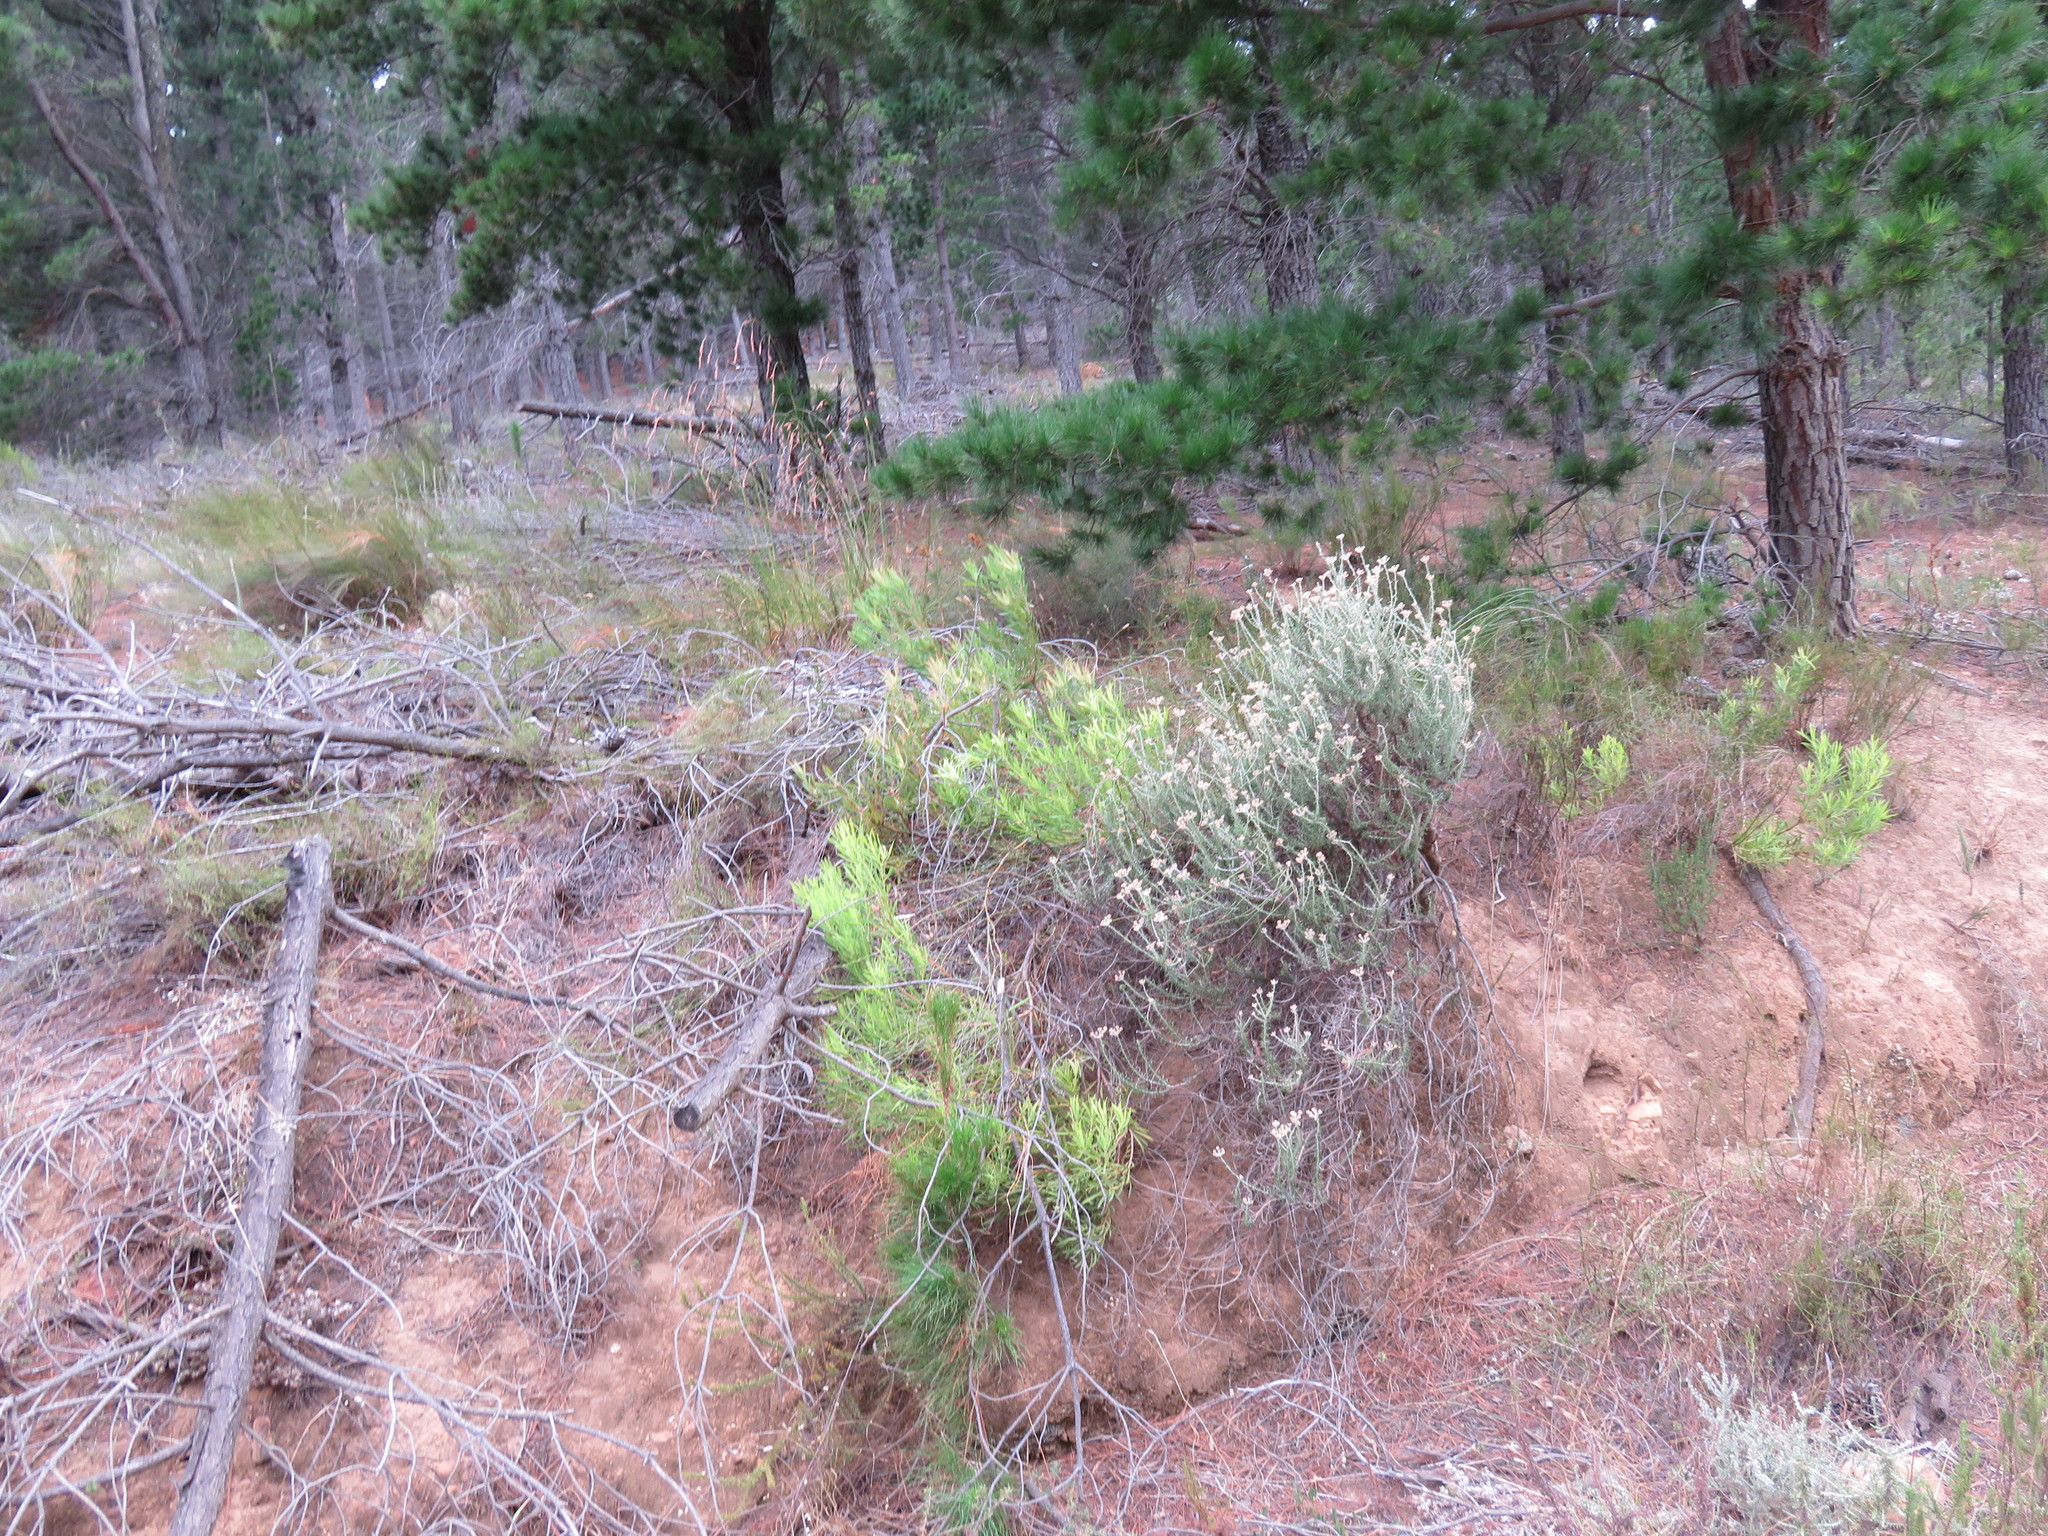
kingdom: Plantae
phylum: Tracheophyta
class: Magnoliopsida
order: Proteales
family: Proteaceae
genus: Leucadendron
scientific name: Leucadendron salignum
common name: Common sunshine conebush
